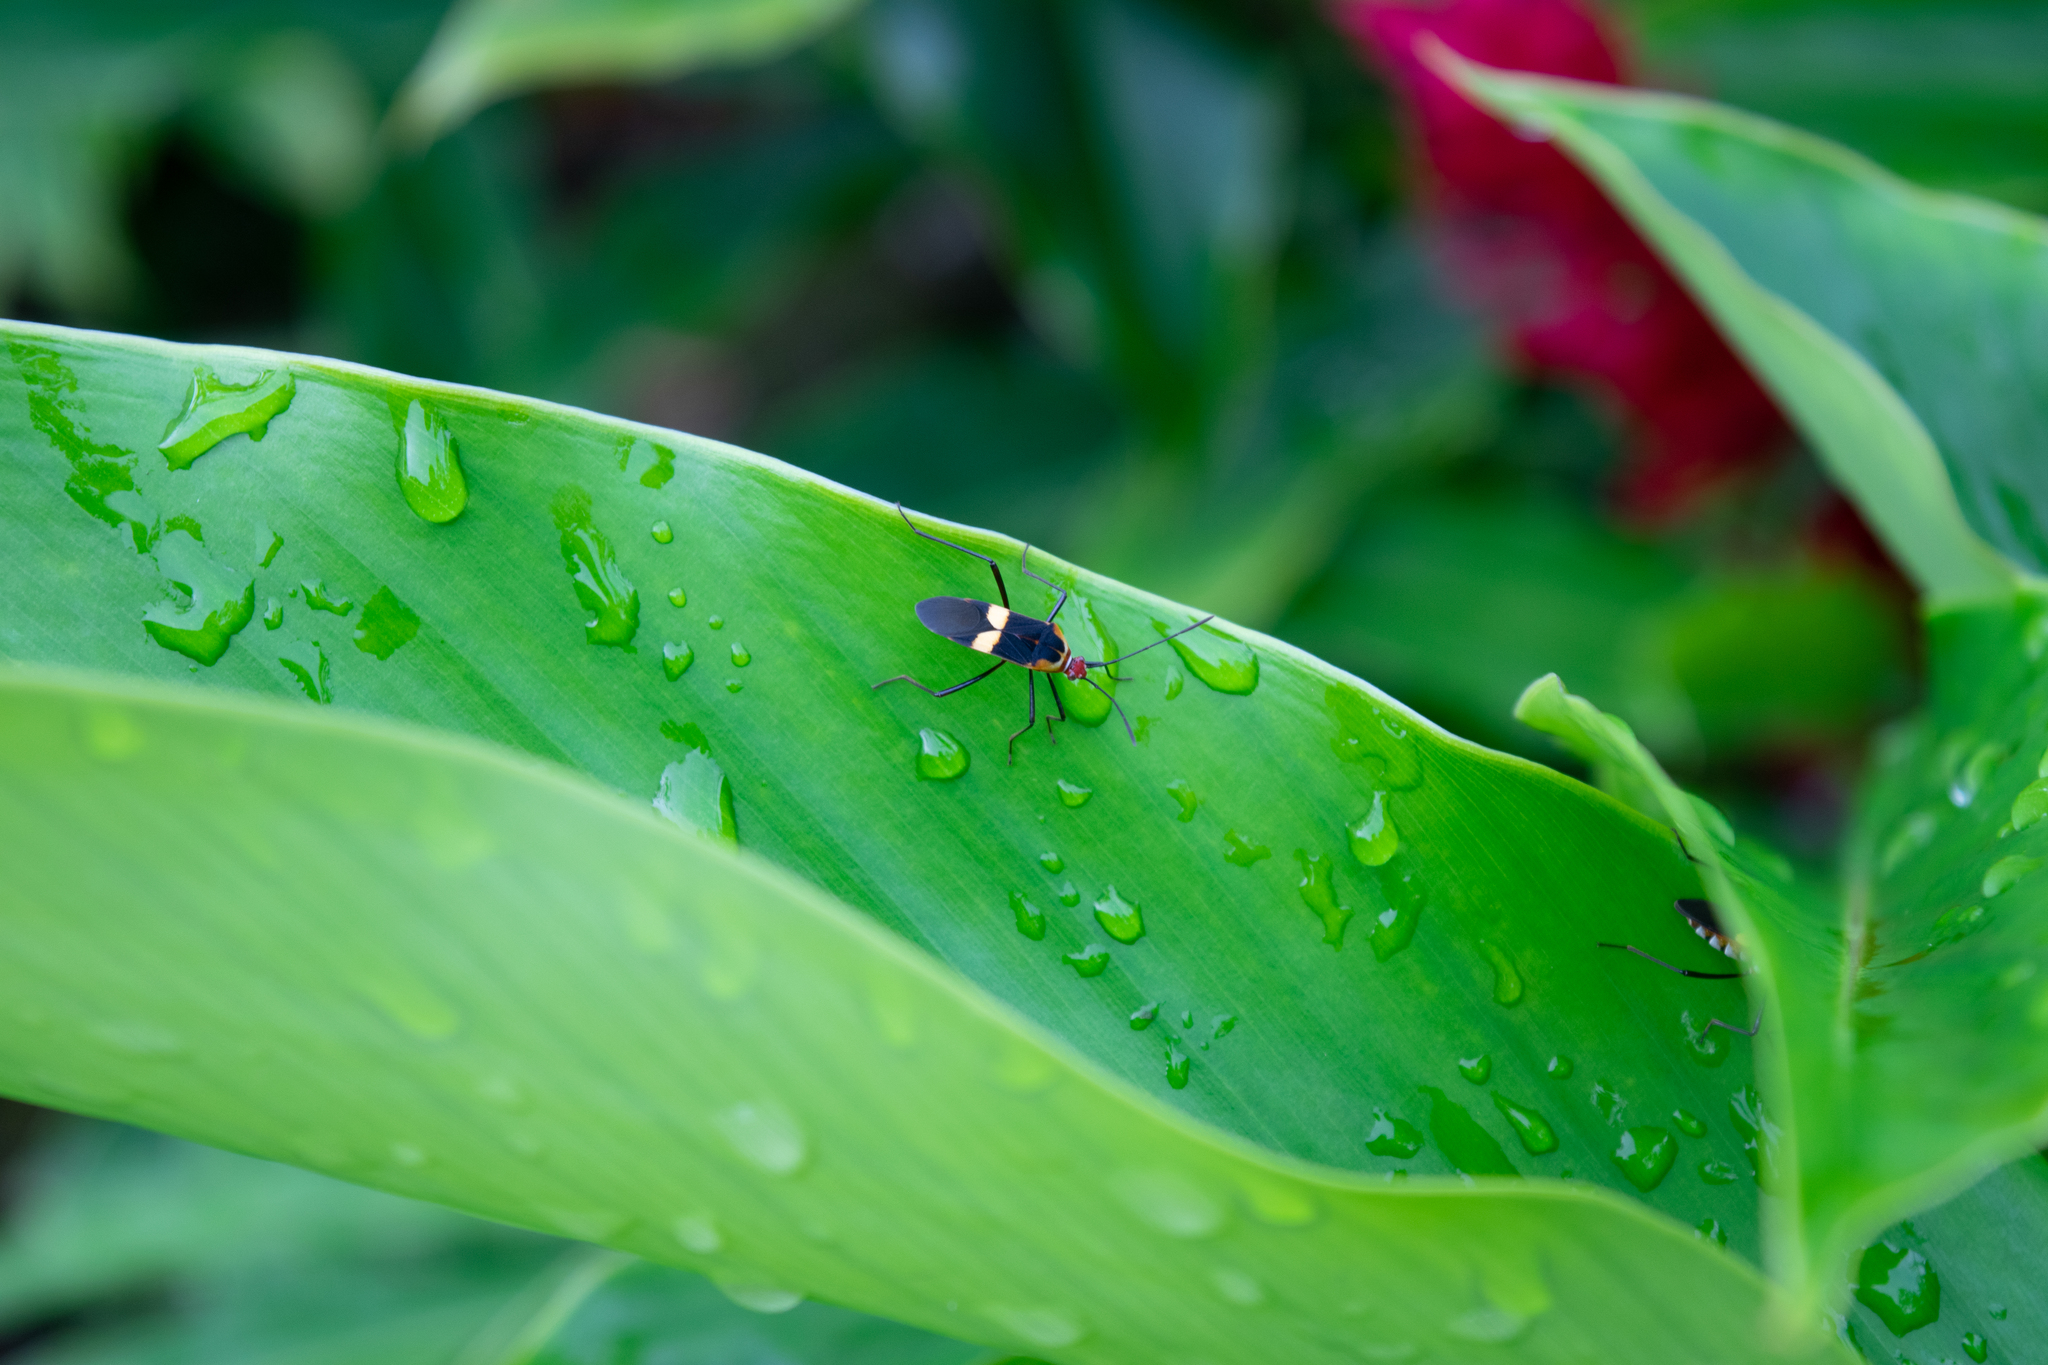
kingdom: Animalia
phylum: Arthropoda
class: Insecta
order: Hemiptera
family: Coreidae
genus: Hypselonotus
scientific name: Hypselonotus interruptus
